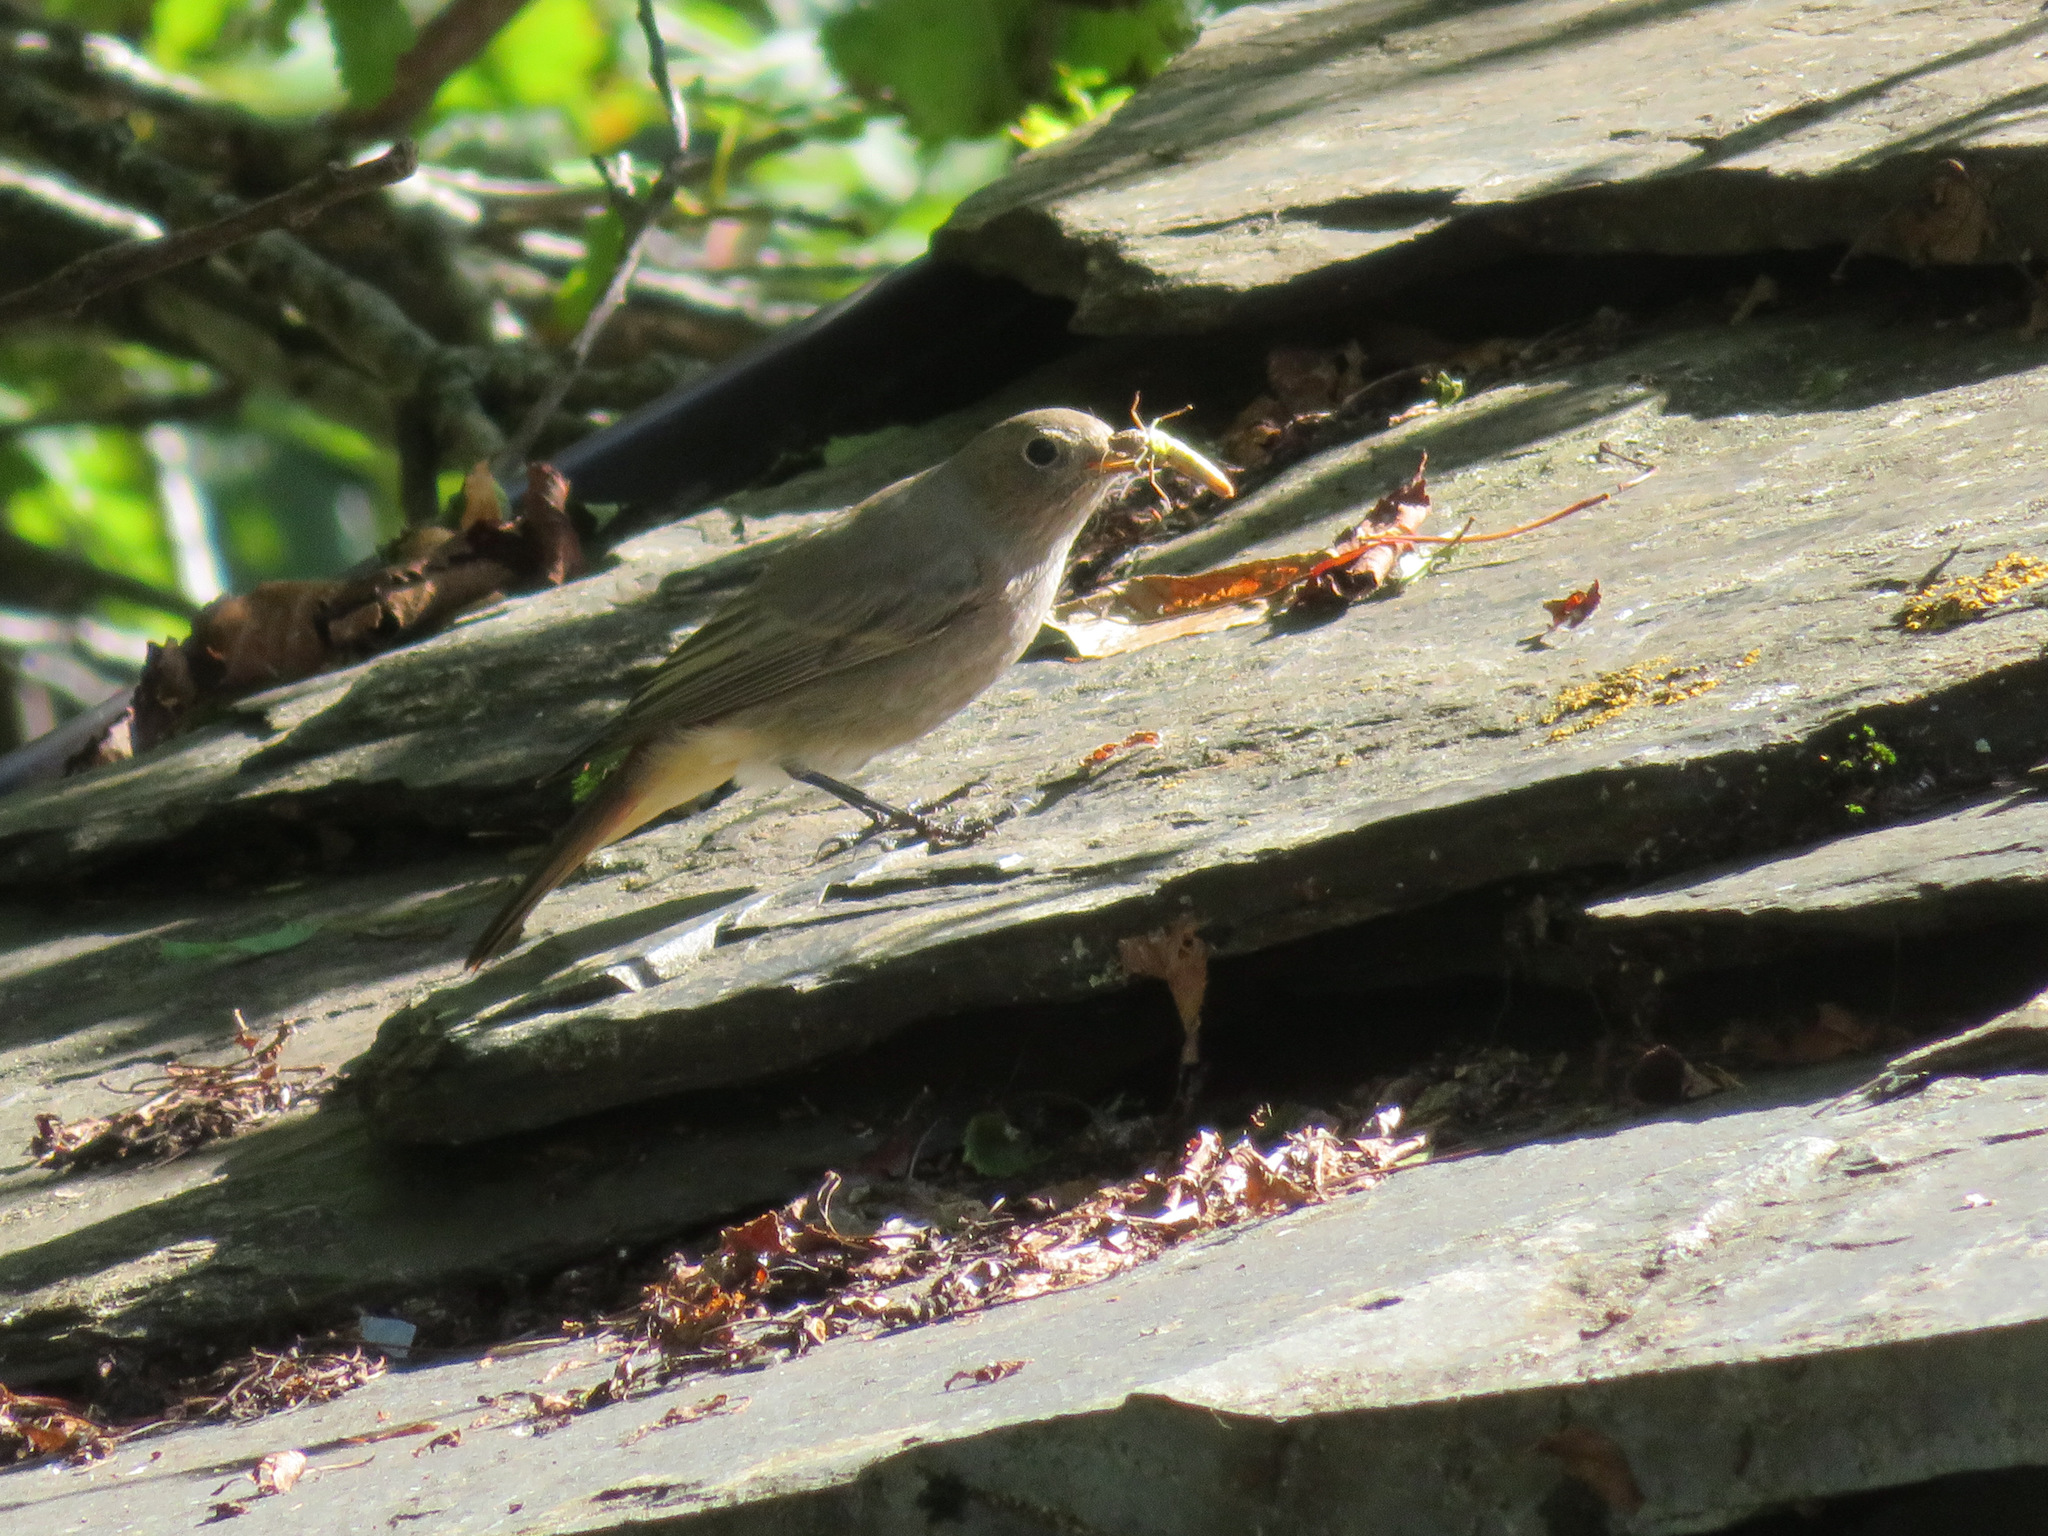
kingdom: Animalia
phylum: Chordata
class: Aves
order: Passeriformes
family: Muscicapidae
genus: Phoenicurus
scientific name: Phoenicurus ochruros
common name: Black redstart
